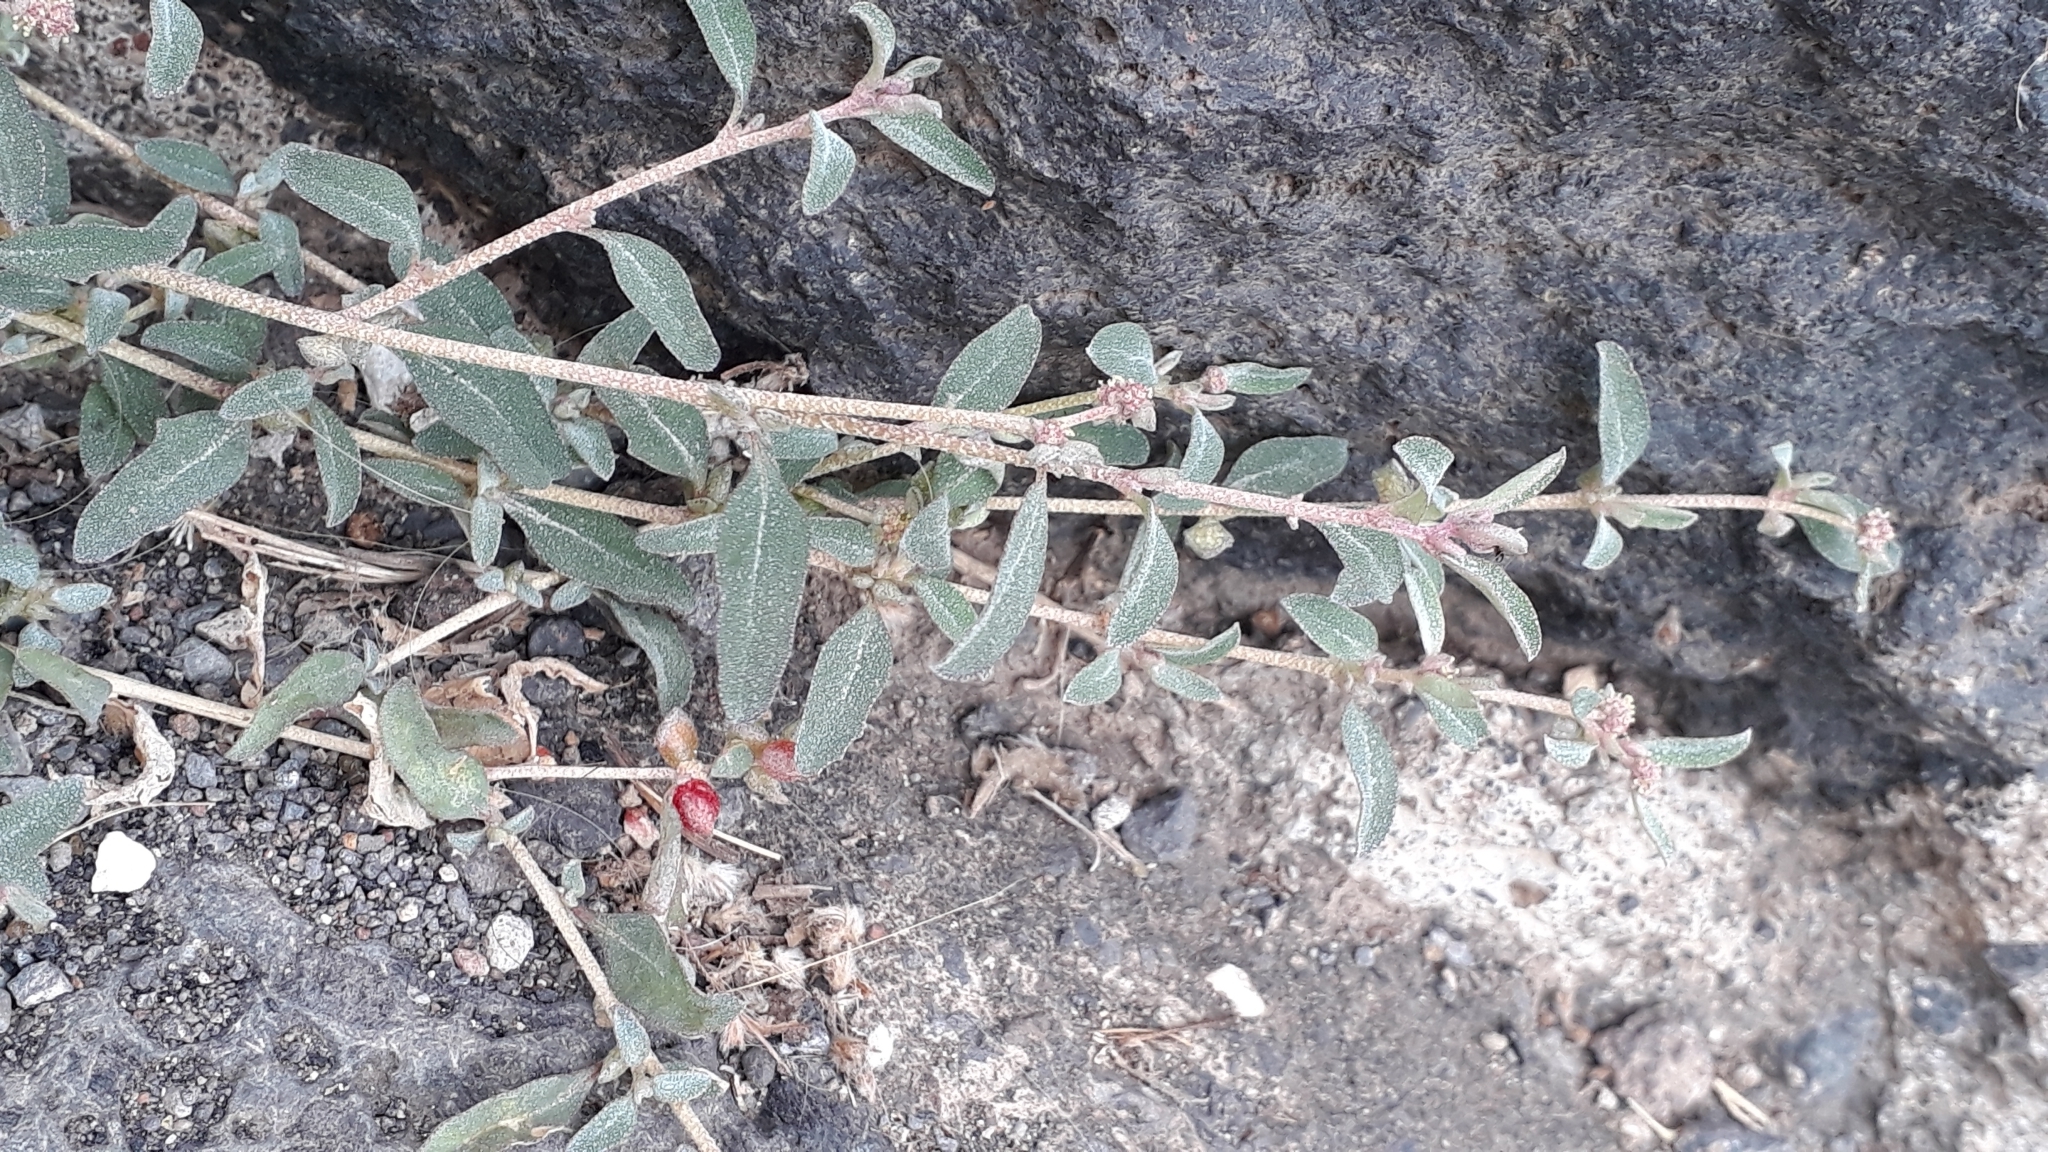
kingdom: Plantae
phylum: Tracheophyta
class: Magnoliopsida
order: Caryophyllales
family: Amaranthaceae
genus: Atriplex
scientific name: Atriplex semibaccata
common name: Australian saltbush
